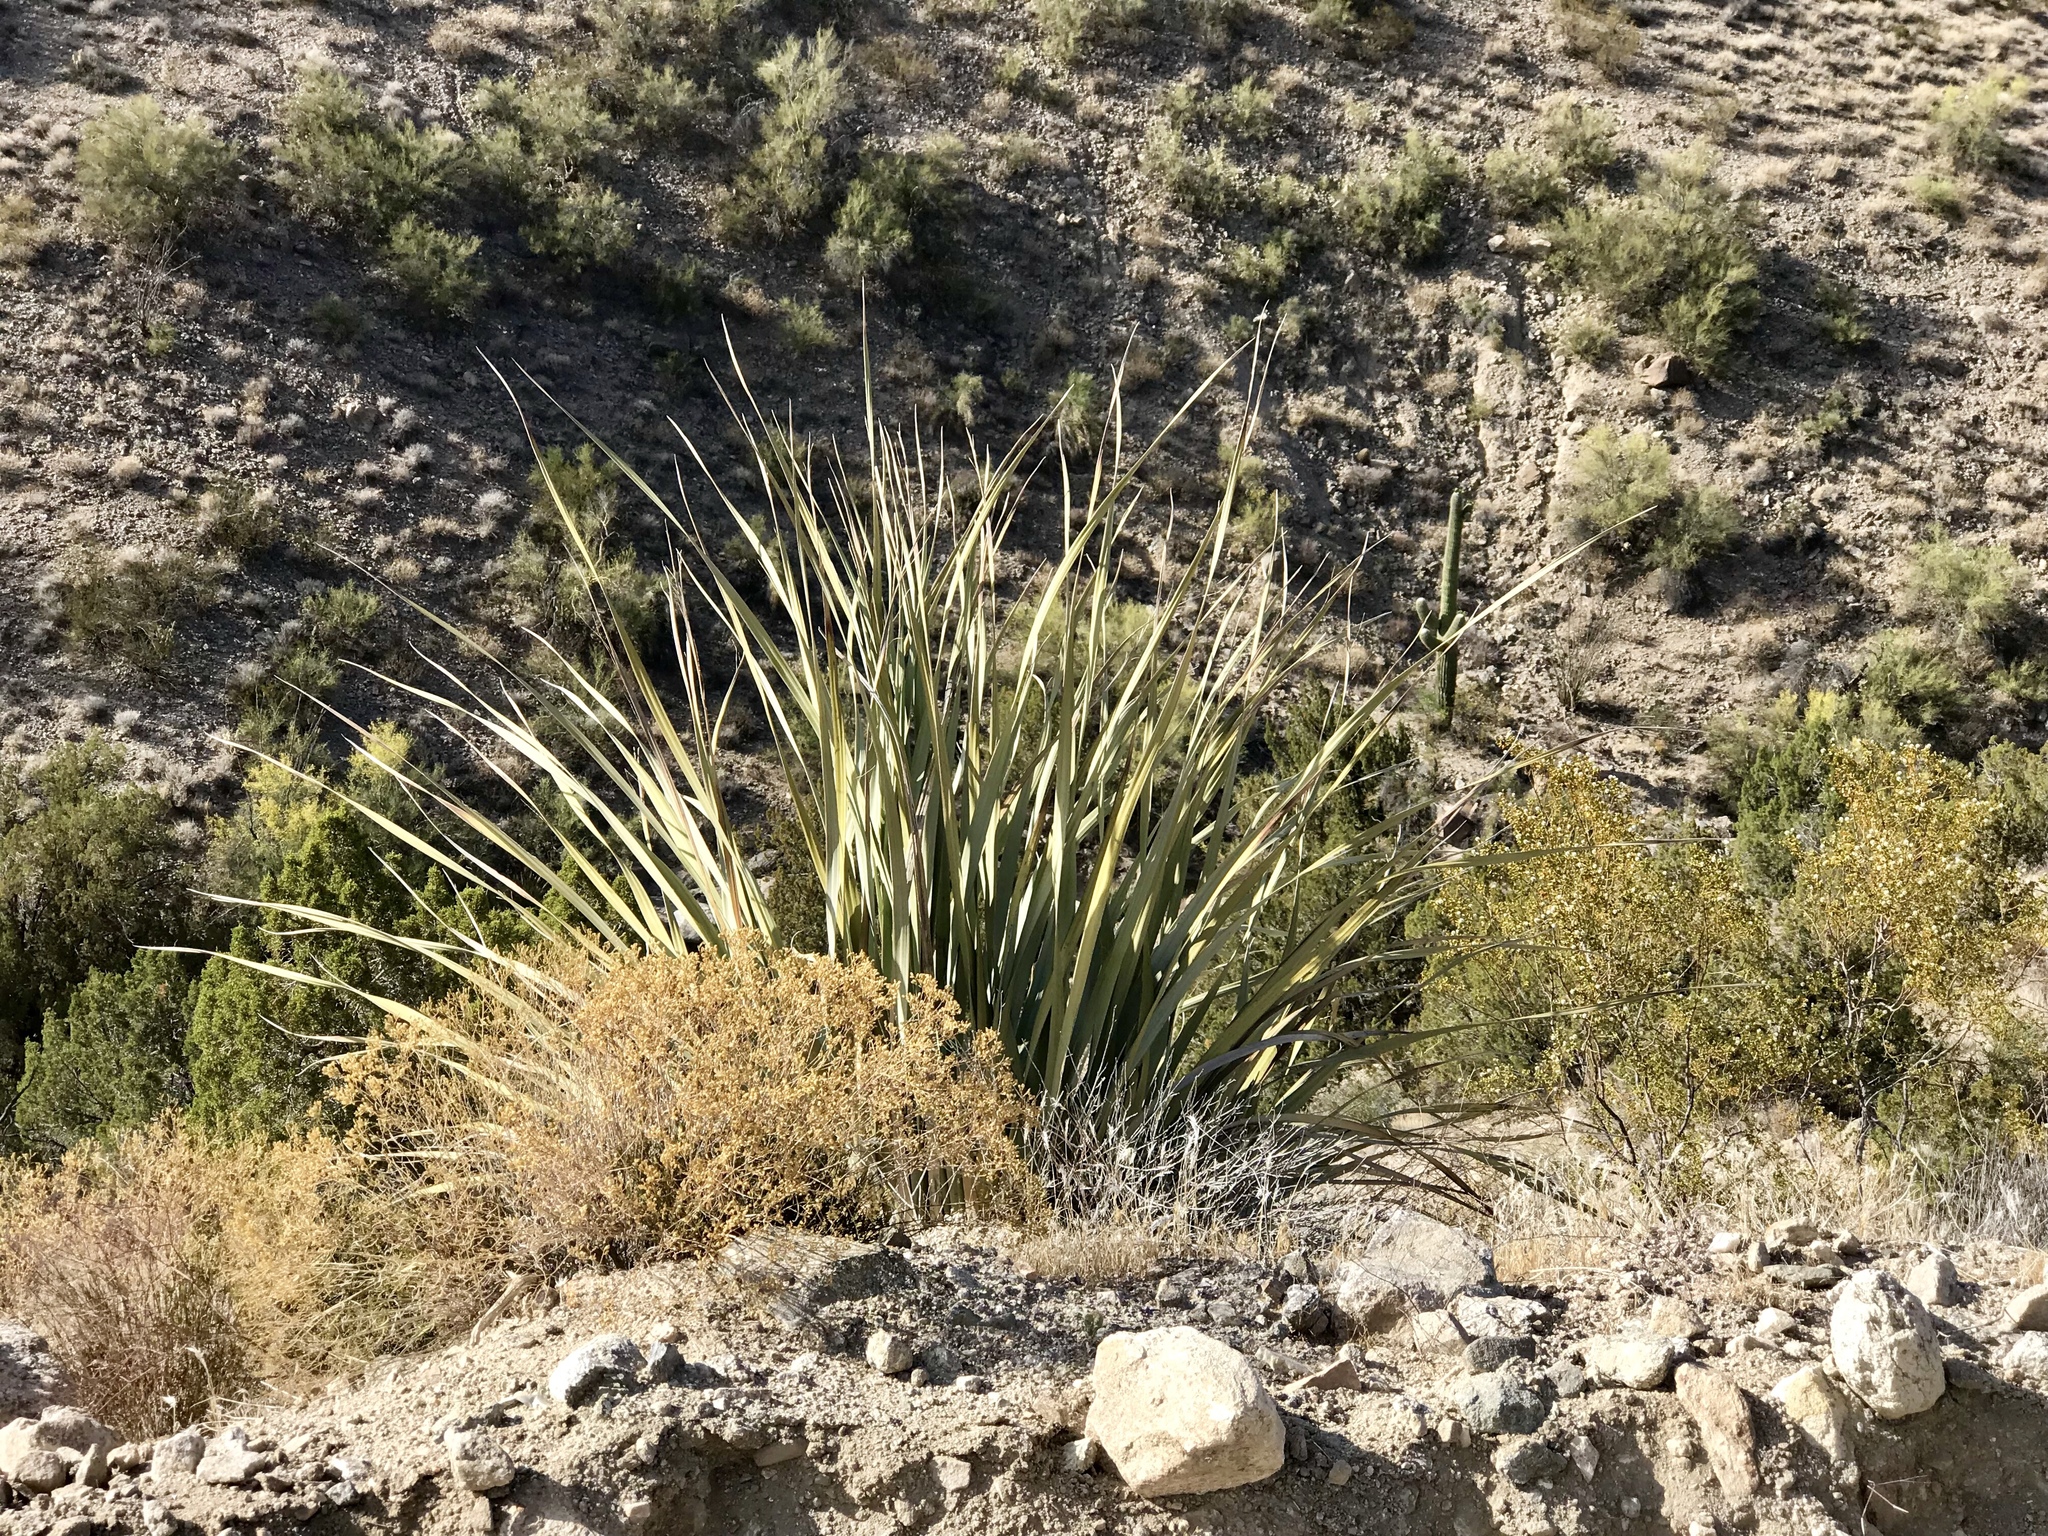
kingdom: Plantae
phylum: Tracheophyta
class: Liliopsida
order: Asparagales
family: Asparagaceae
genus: Nolina
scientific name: Nolina bigelovii
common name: Bigelow bear-grass
